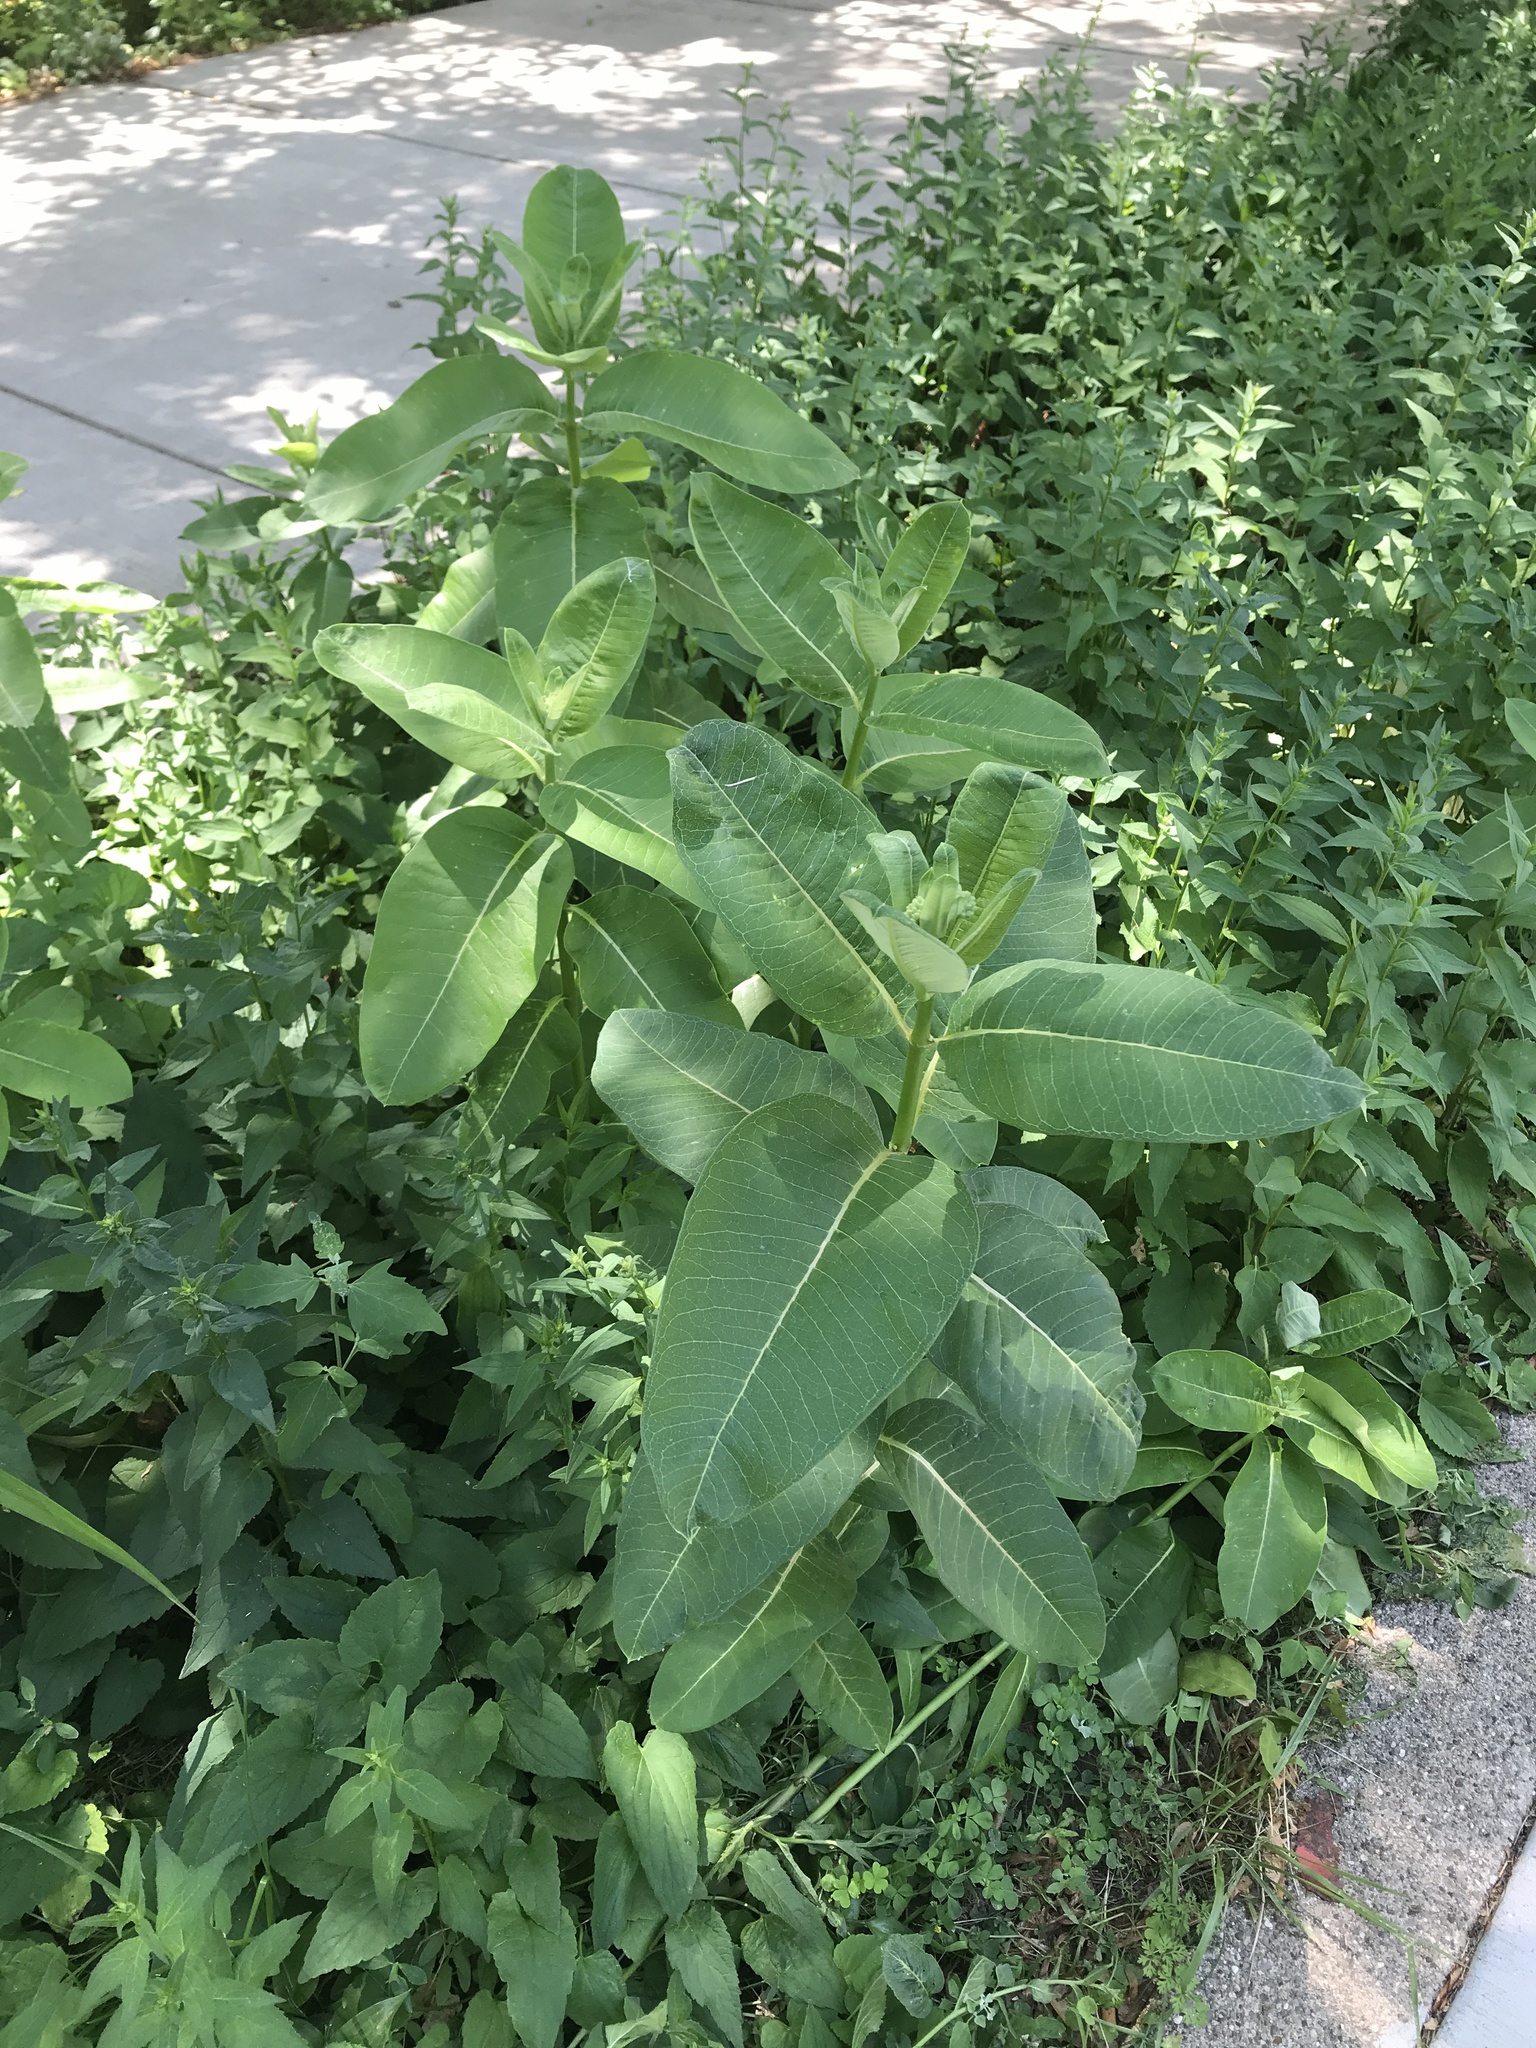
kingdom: Plantae
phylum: Tracheophyta
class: Magnoliopsida
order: Gentianales
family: Apocynaceae
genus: Asclepias
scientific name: Asclepias syriaca
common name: Common milkweed
